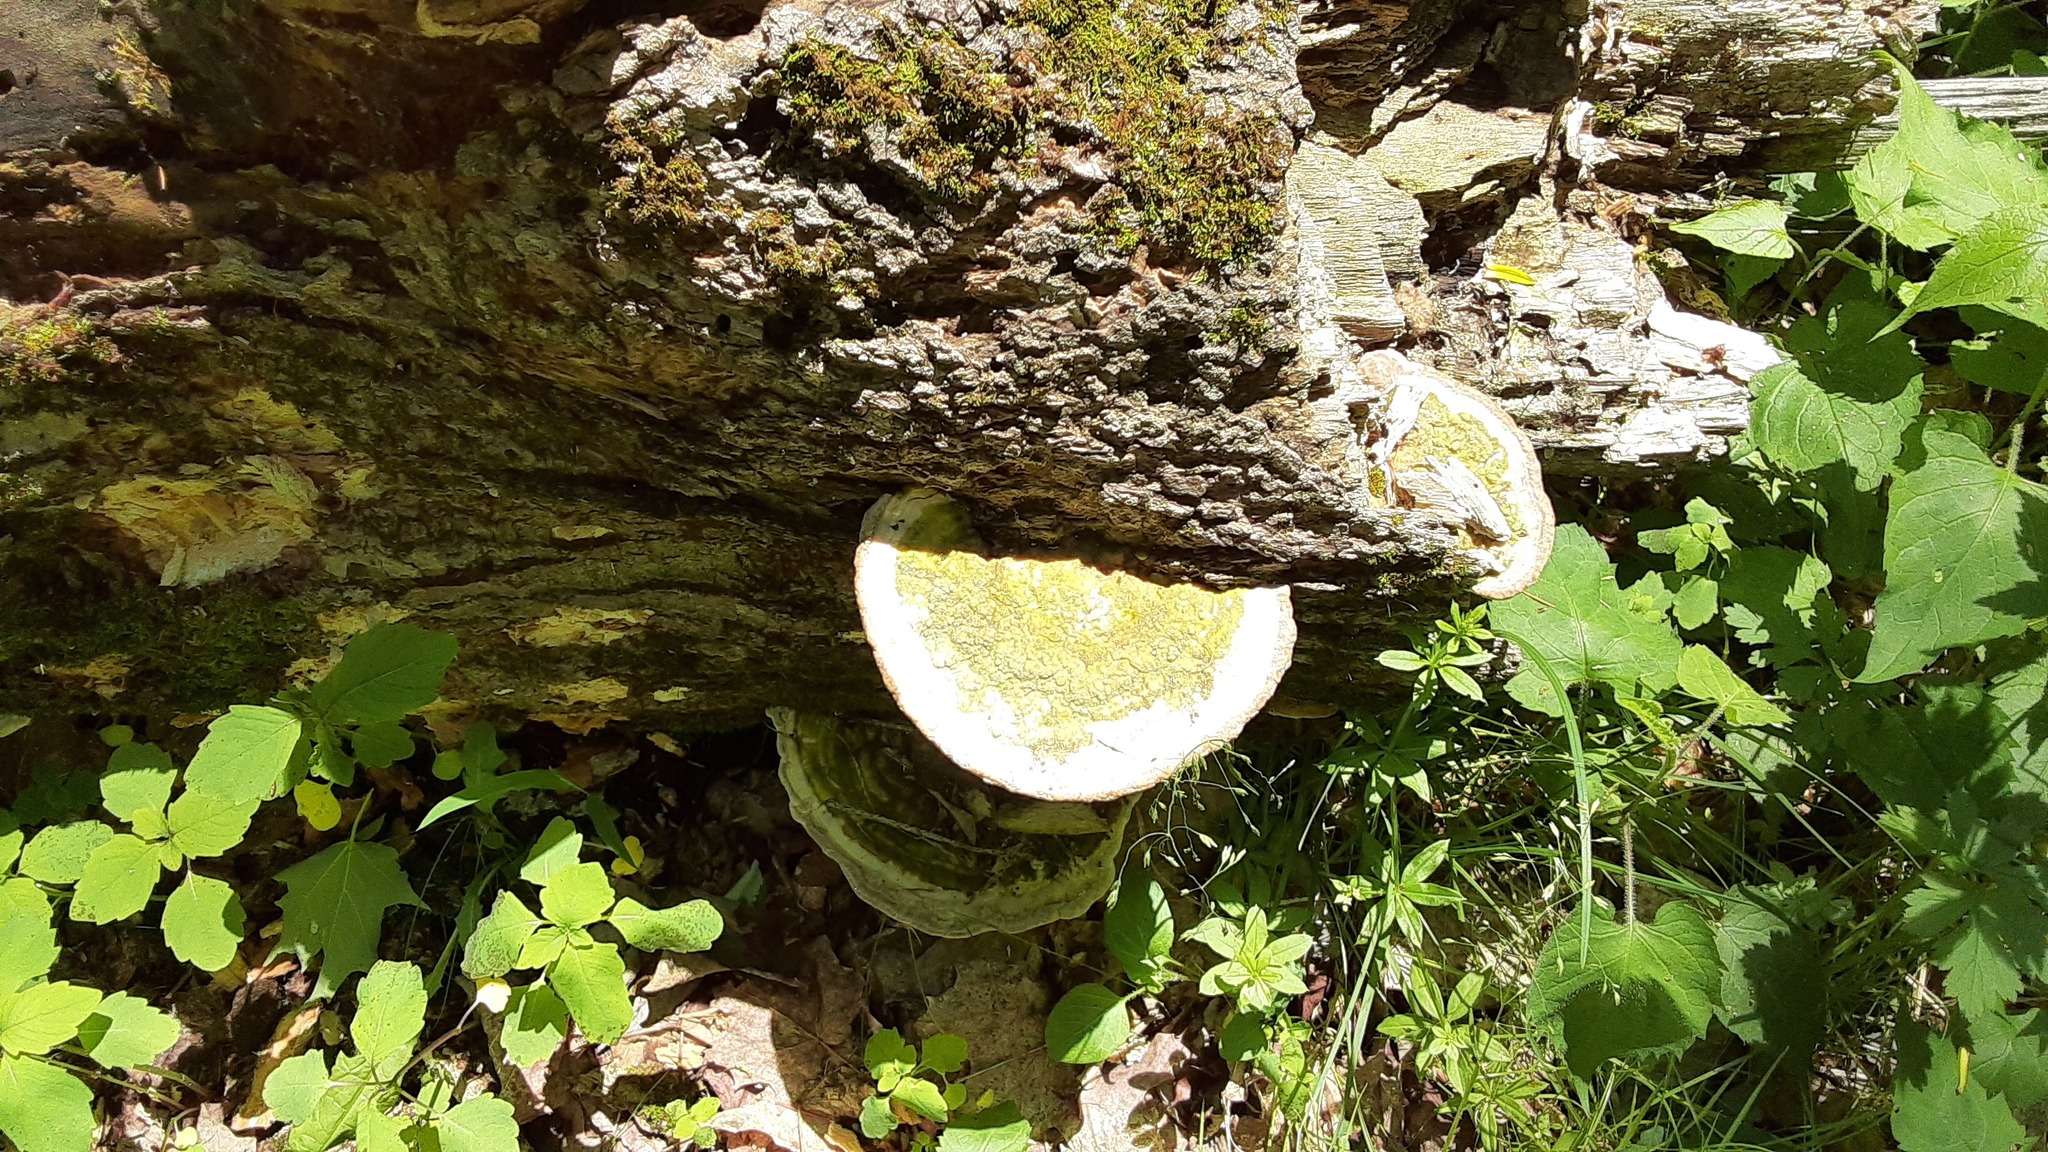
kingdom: Fungi
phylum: Basidiomycota
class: Agaricomycetes
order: Polyporales
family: Polyporaceae
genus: Trametes
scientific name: Trametes gibbosa
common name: Lumpy bracket
